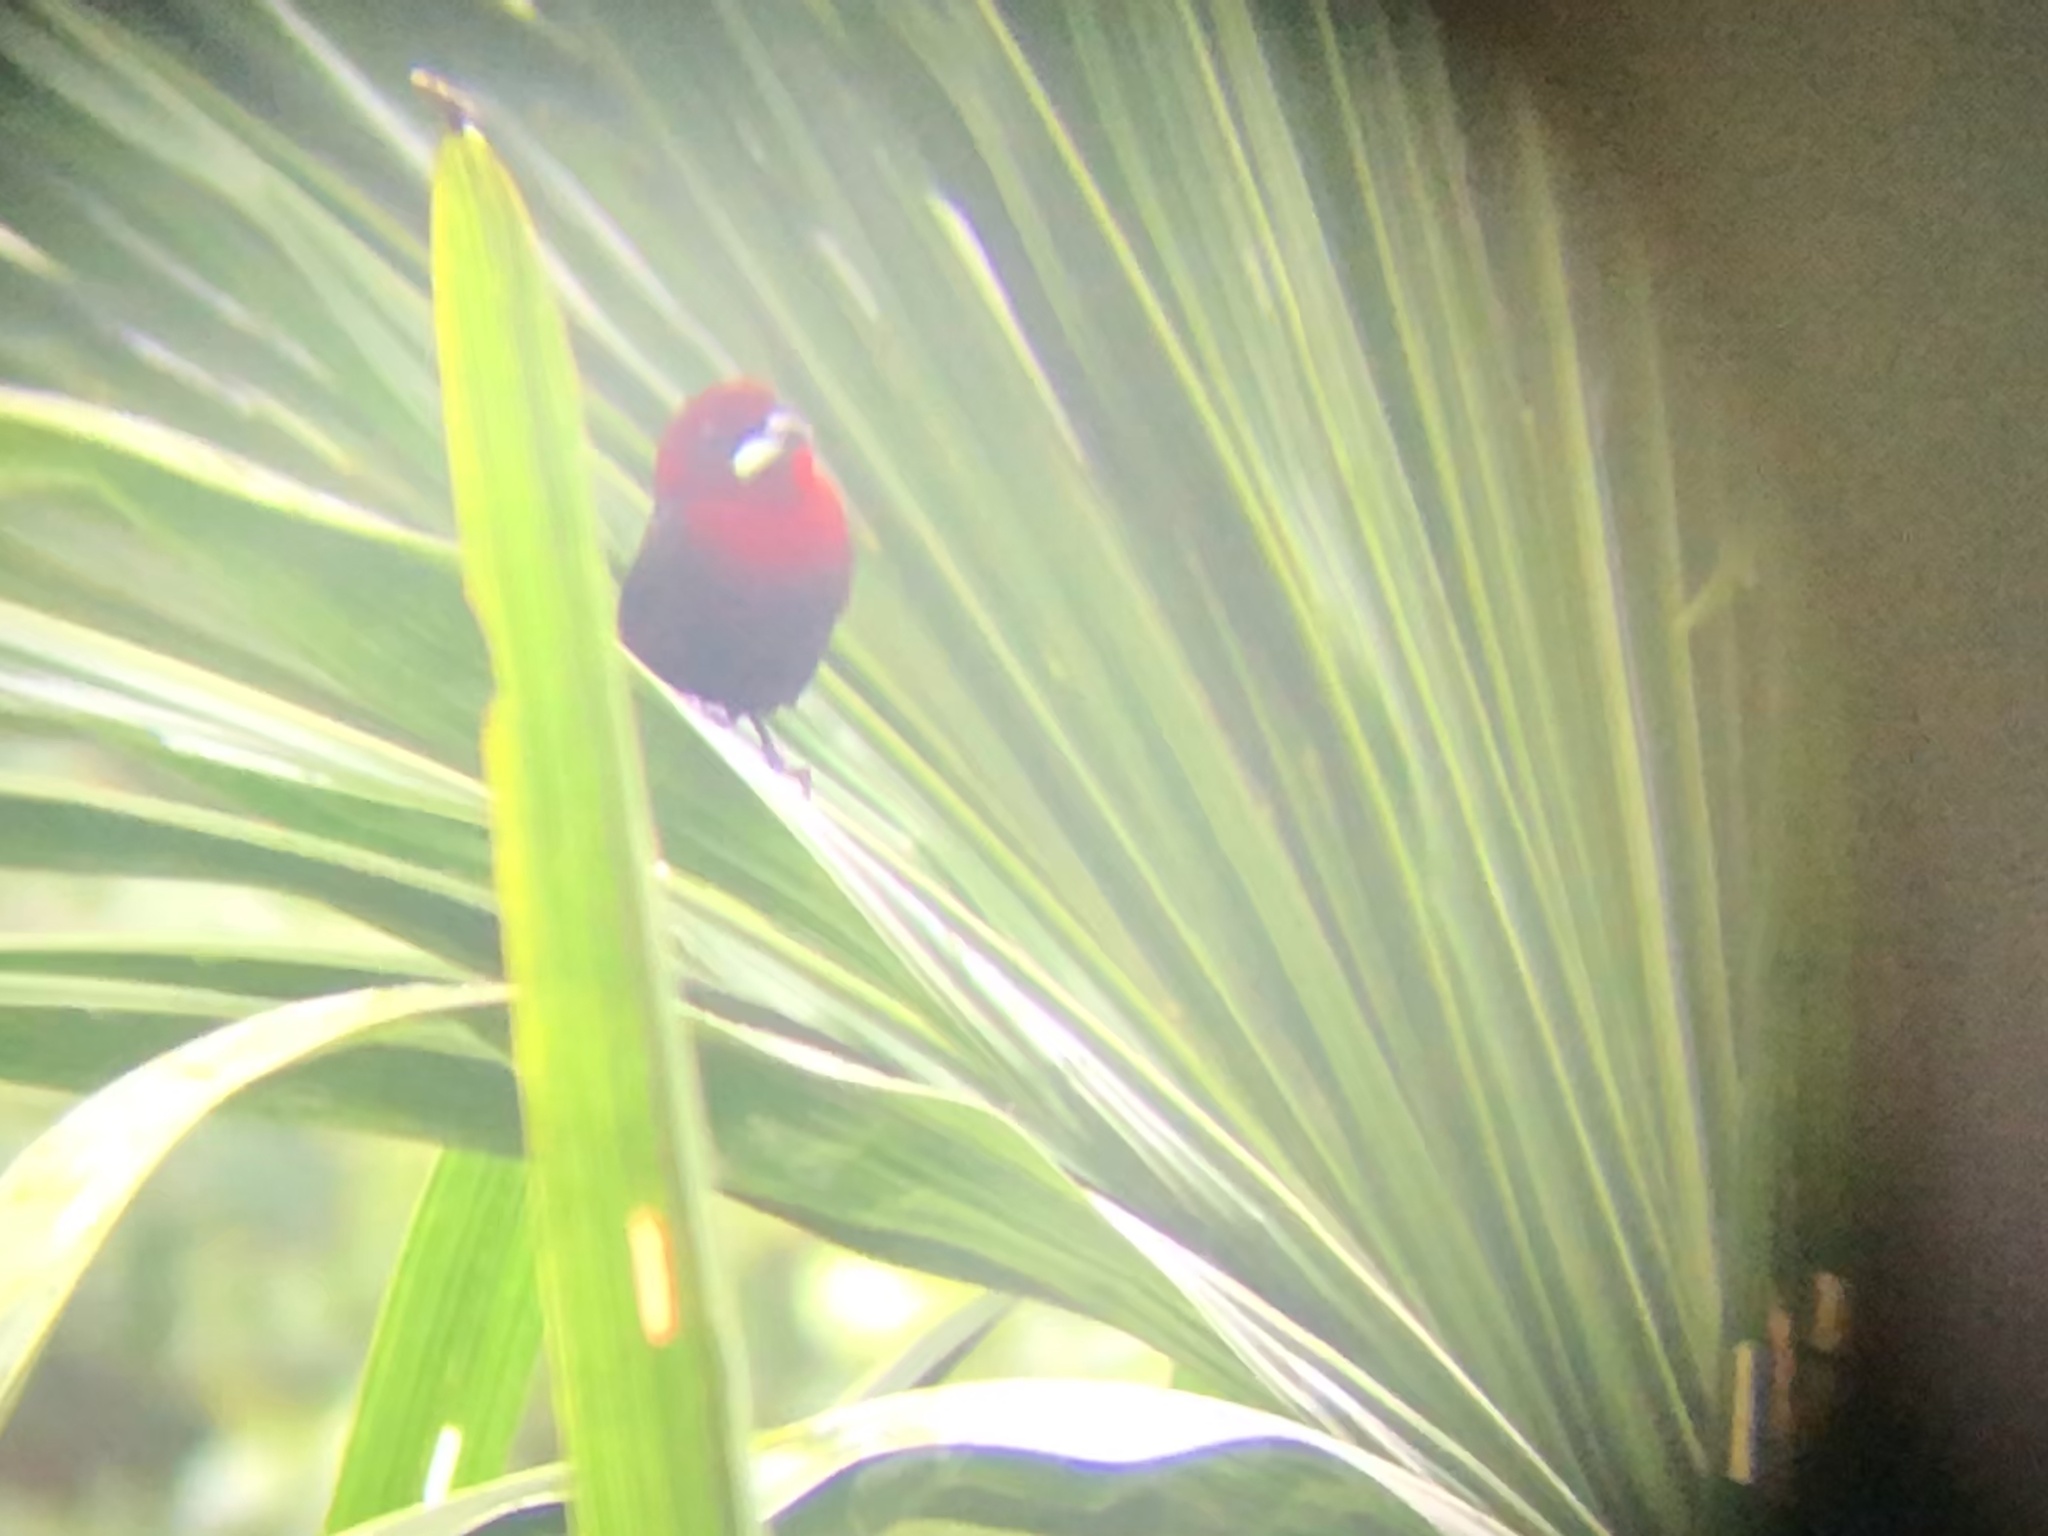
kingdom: Animalia
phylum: Chordata
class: Aves
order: Passeriformes
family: Thraupidae
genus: Ramphocelus
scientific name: Ramphocelus carbo
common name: Silver-beaked tanager
